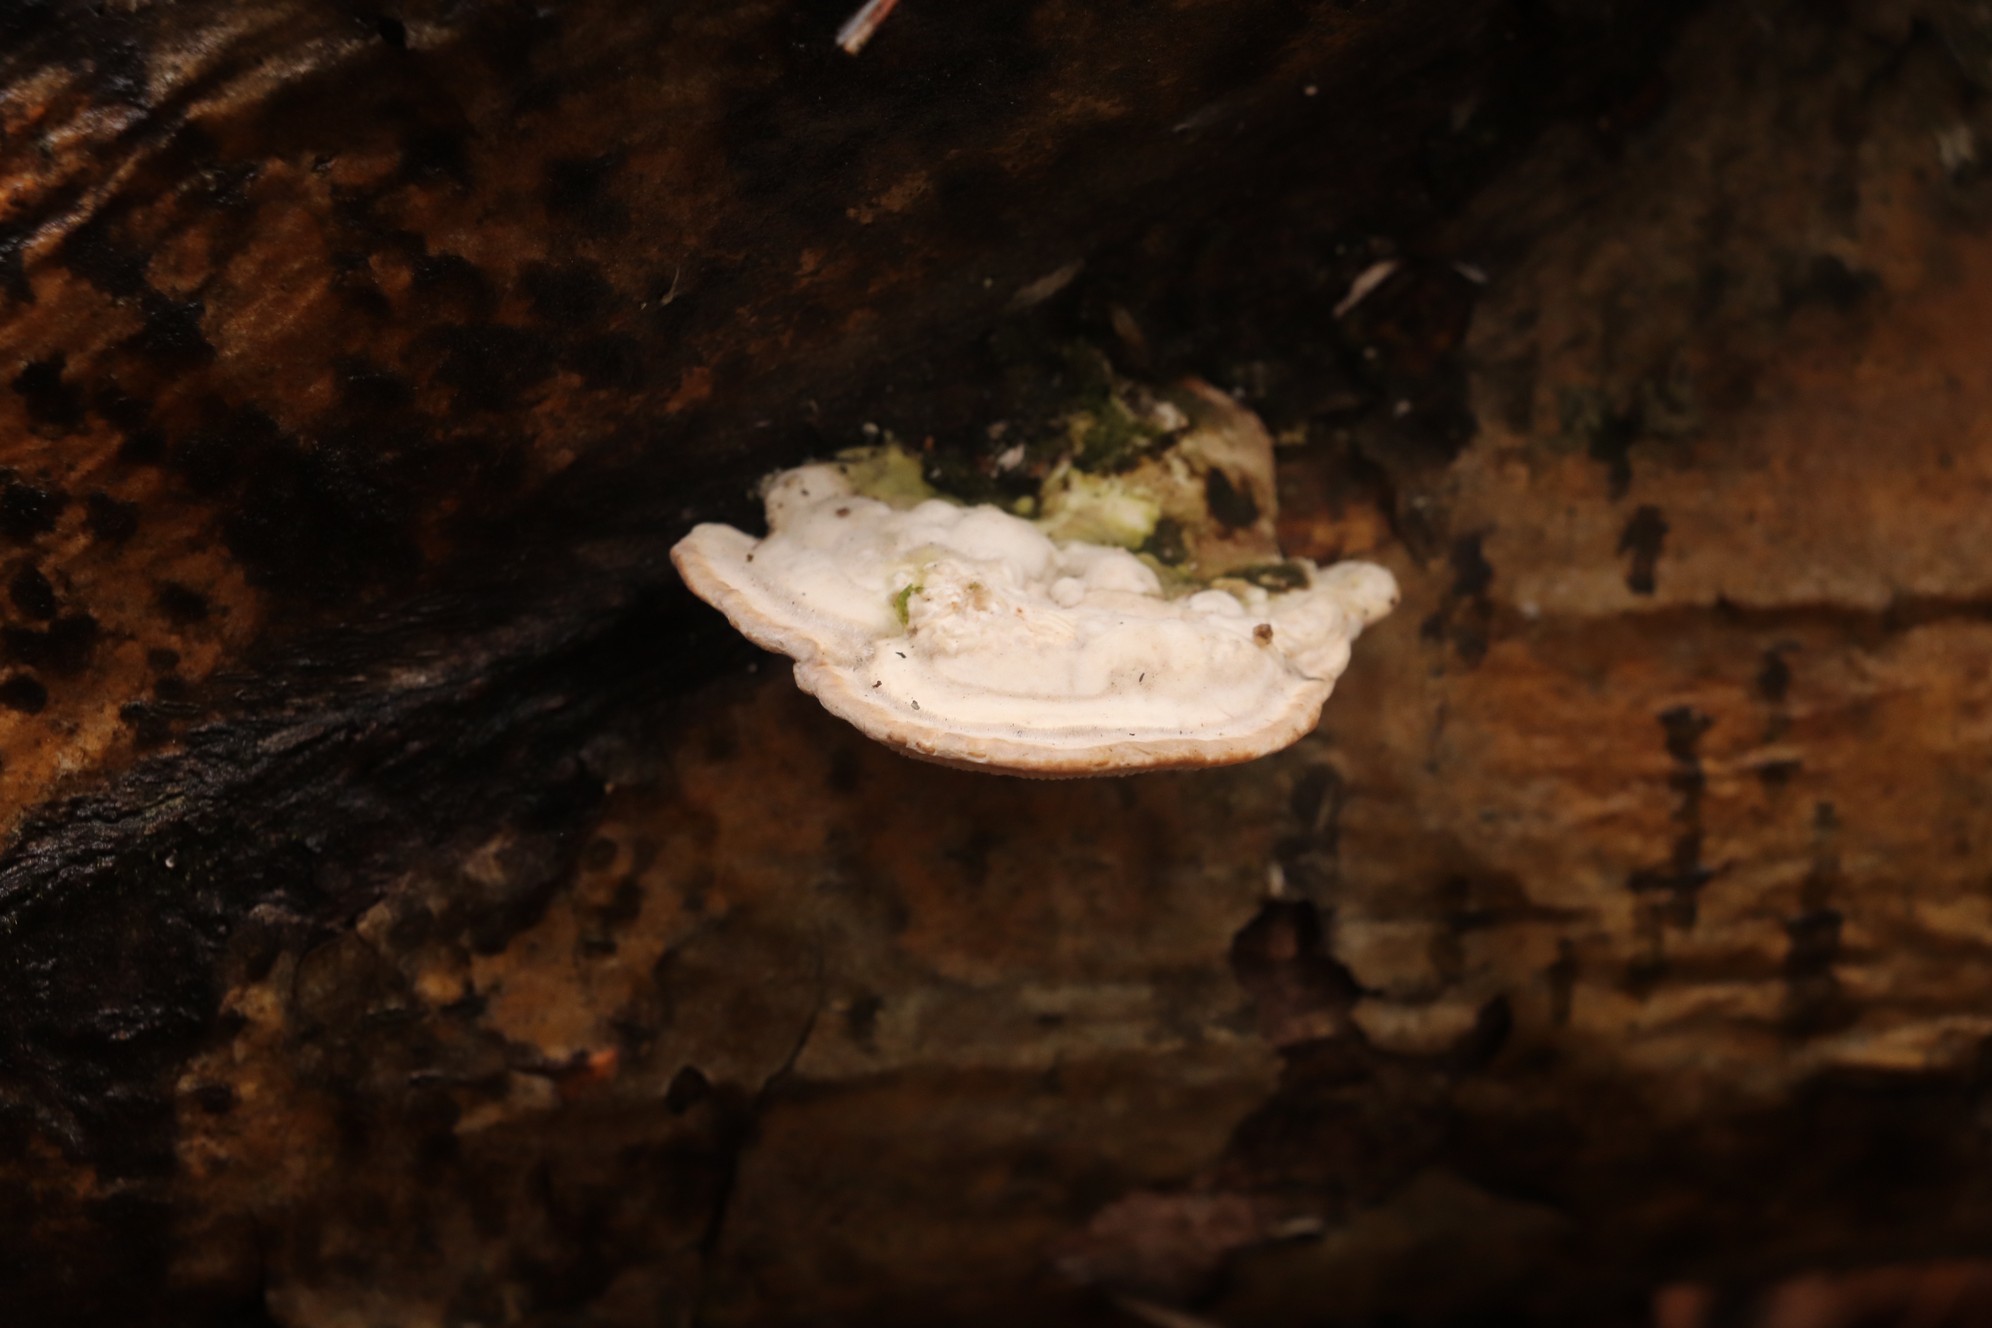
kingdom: Fungi
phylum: Basidiomycota
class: Agaricomycetes
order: Polyporales
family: Polyporaceae
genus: Trametes
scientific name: Trametes gibbosa
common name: Lumpy bracket
